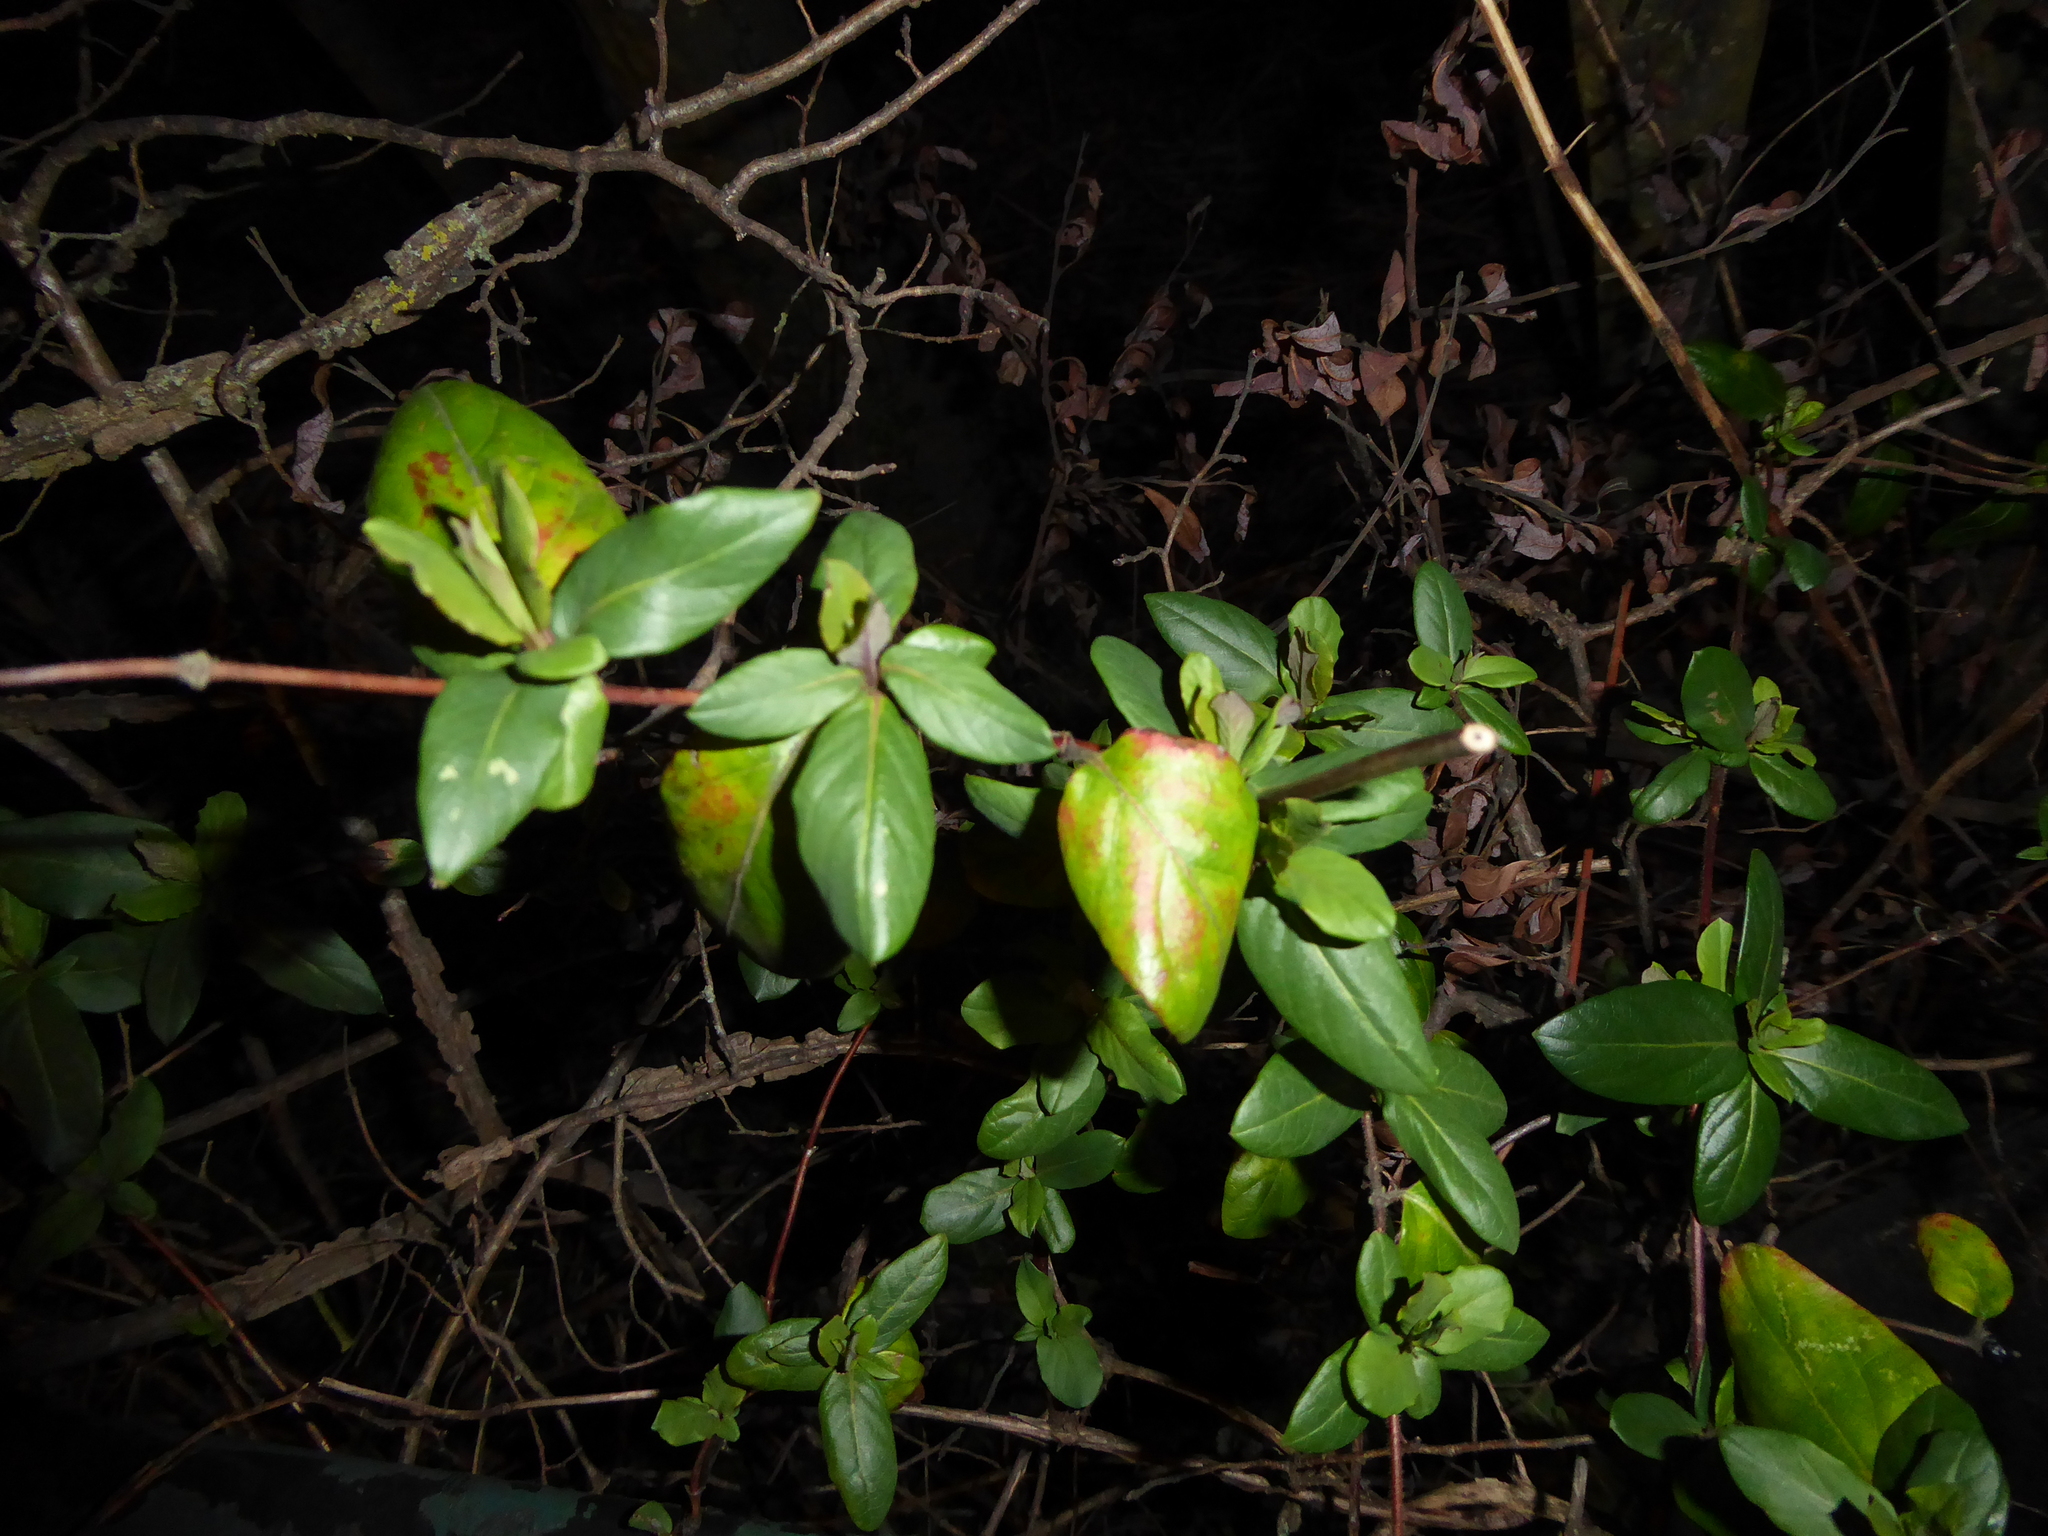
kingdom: Plantae
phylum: Tracheophyta
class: Magnoliopsida
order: Dipsacales
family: Caprifoliaceae
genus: Lonicera
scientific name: Lonicera japonica
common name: Japanese honeysuckle
